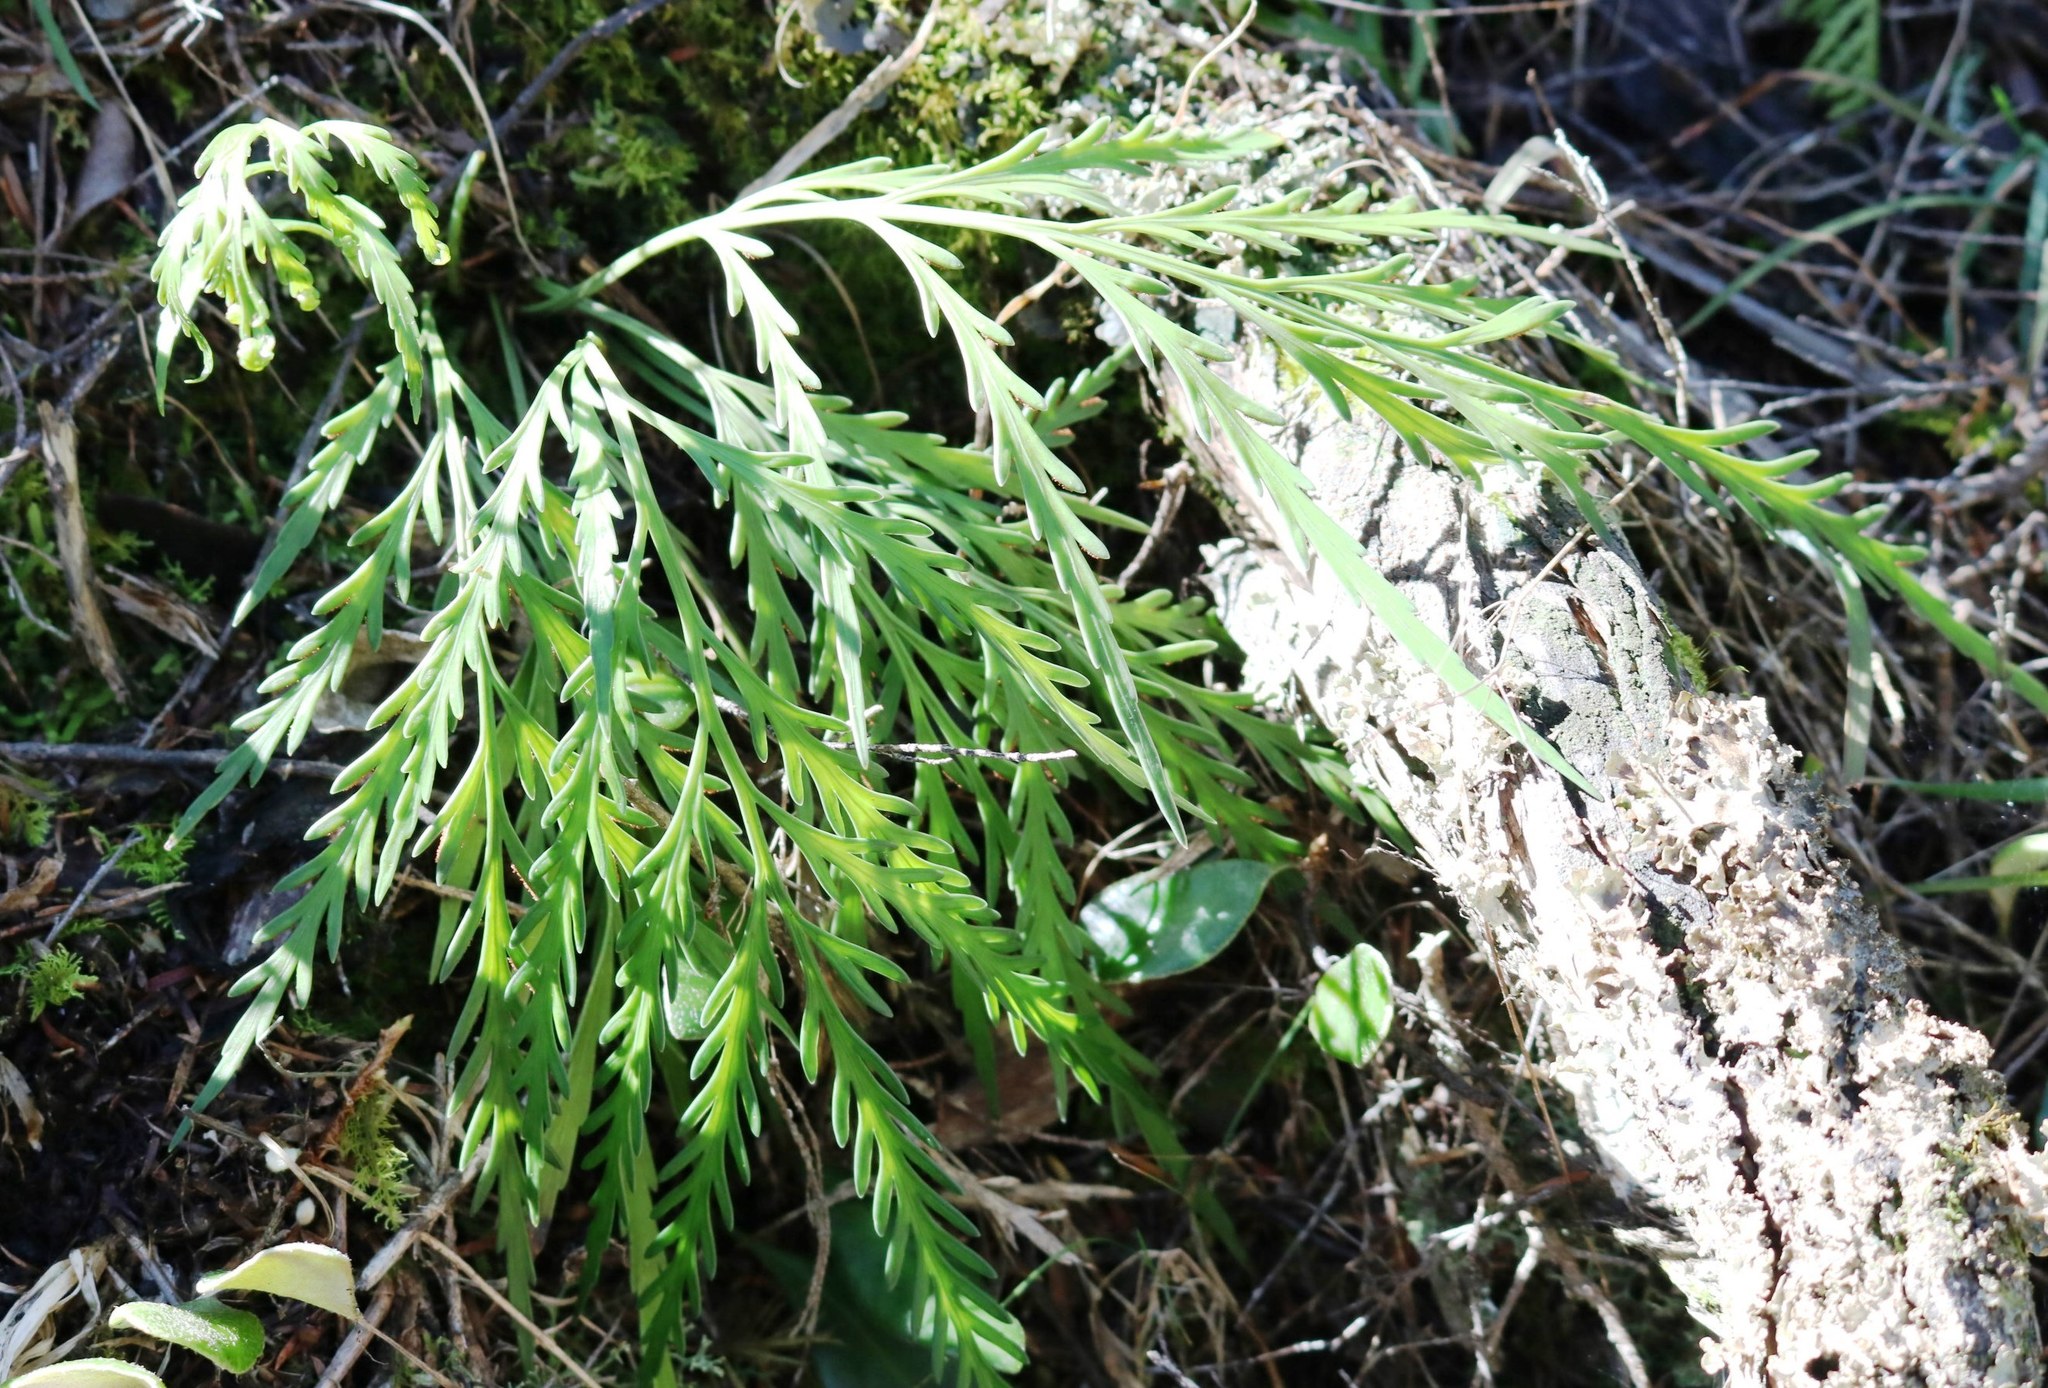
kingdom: Plantae
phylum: Tracheophyta
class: Polypodiopsida
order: Polypodiales
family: Aspleniaceae
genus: Asplenium
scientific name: Asplenium flaccidum
